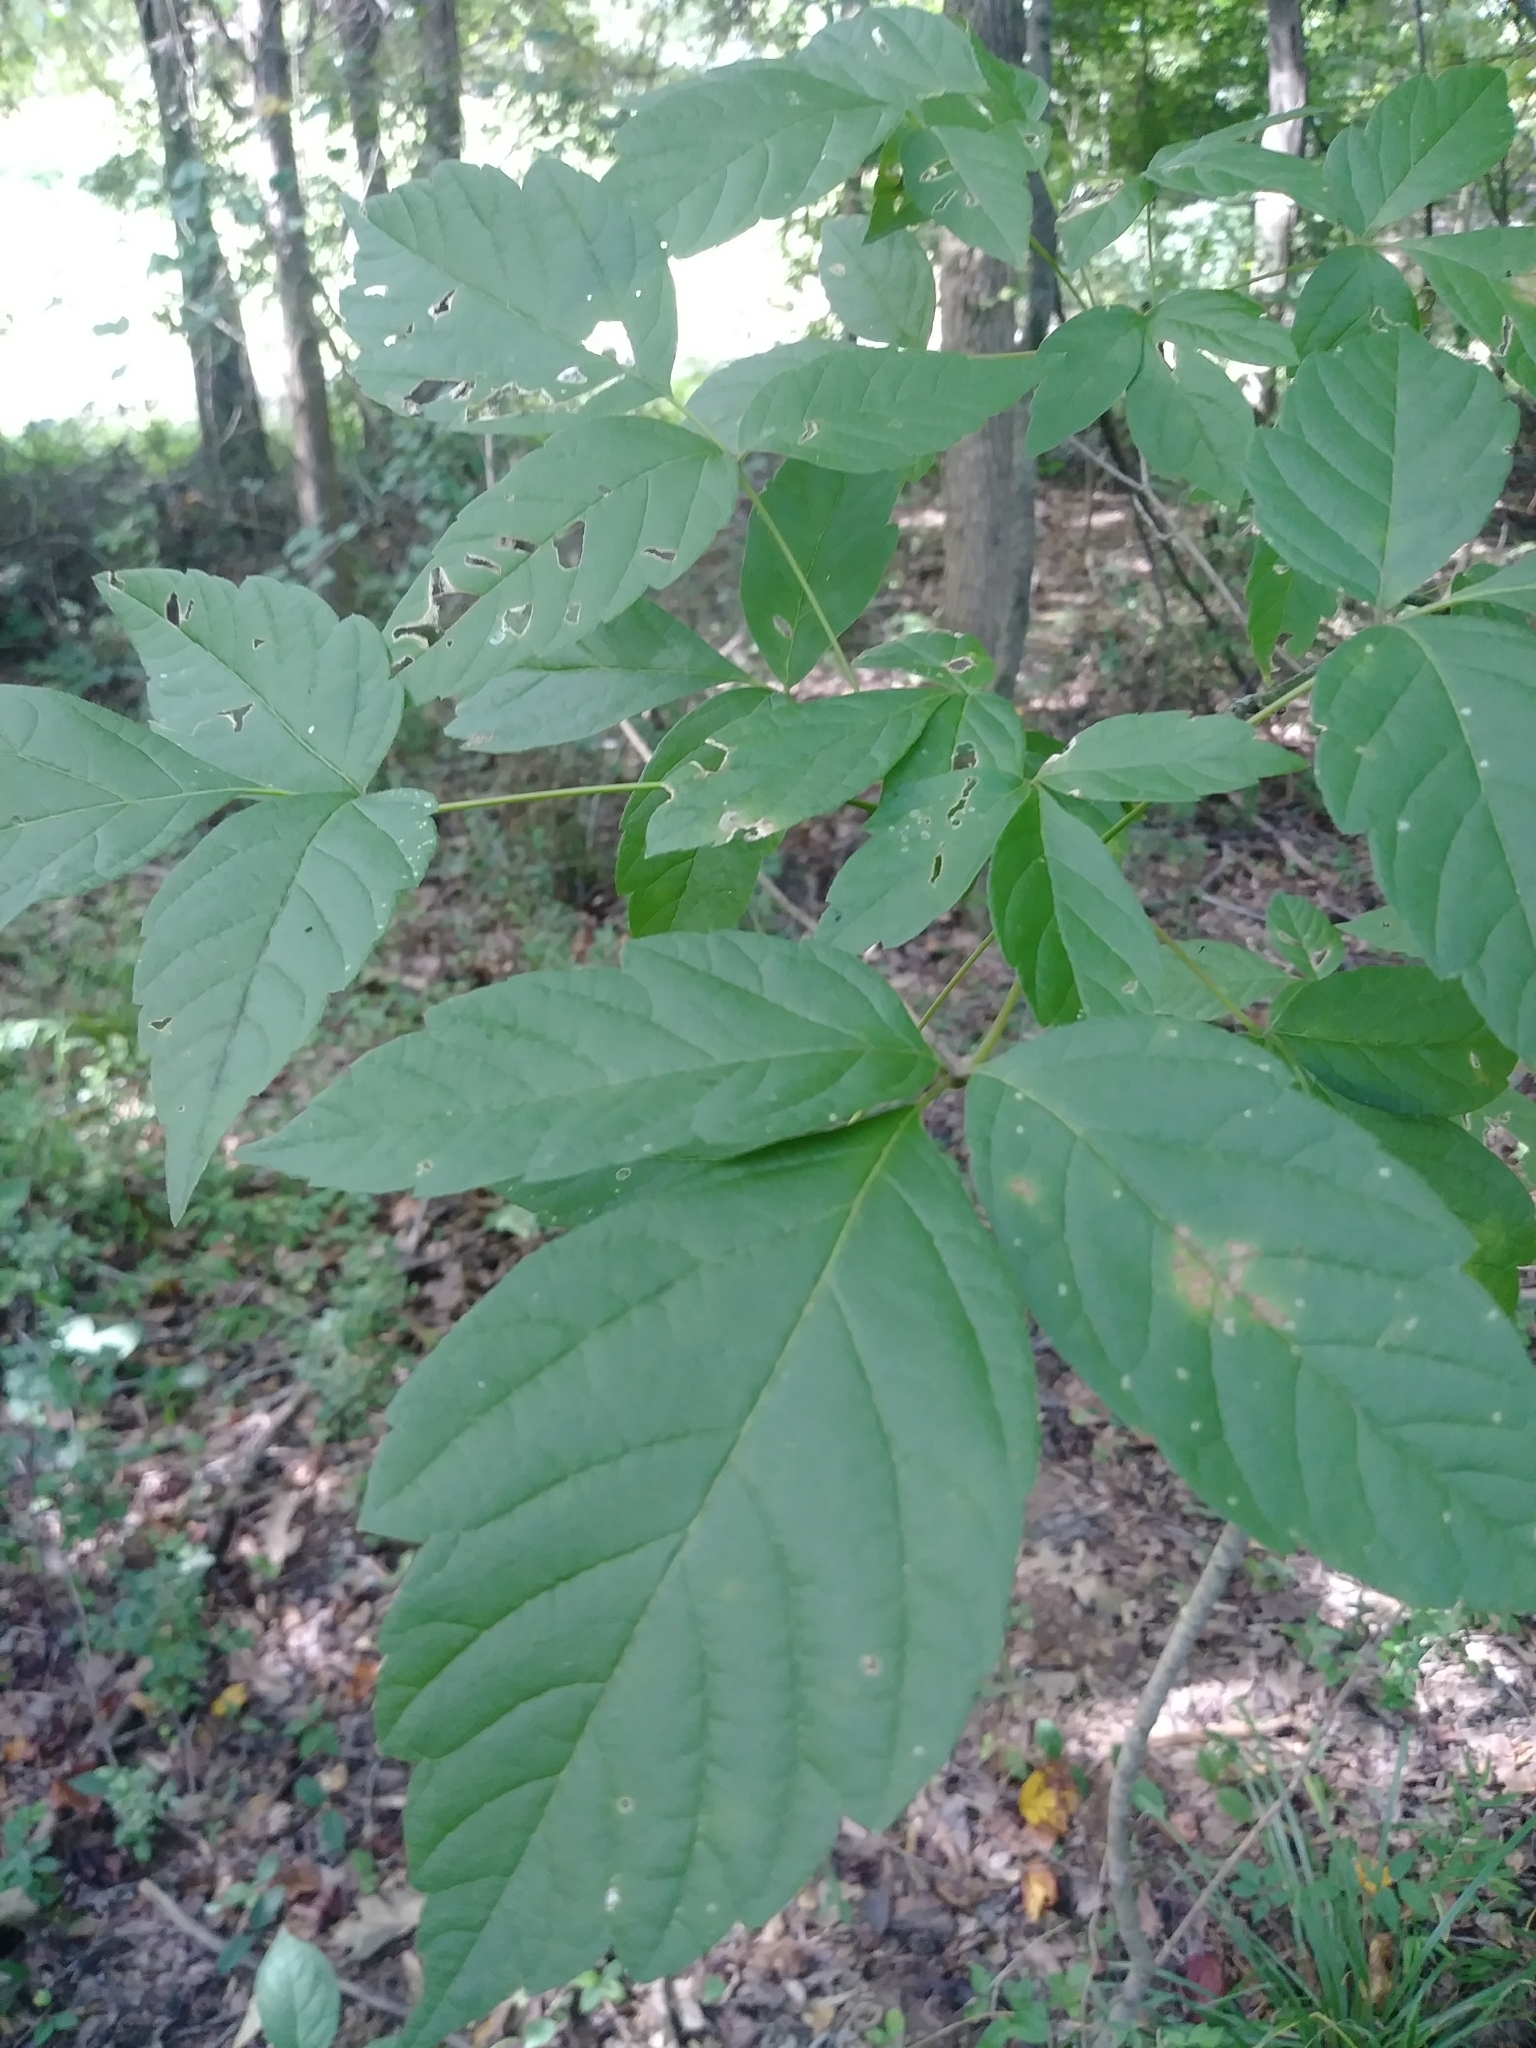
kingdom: Plantae
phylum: Tracheophyta
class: Magnoliopsida
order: Sapindales
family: Sapindaceae
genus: Acer
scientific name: Acer negundo
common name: Ashleaf maple
